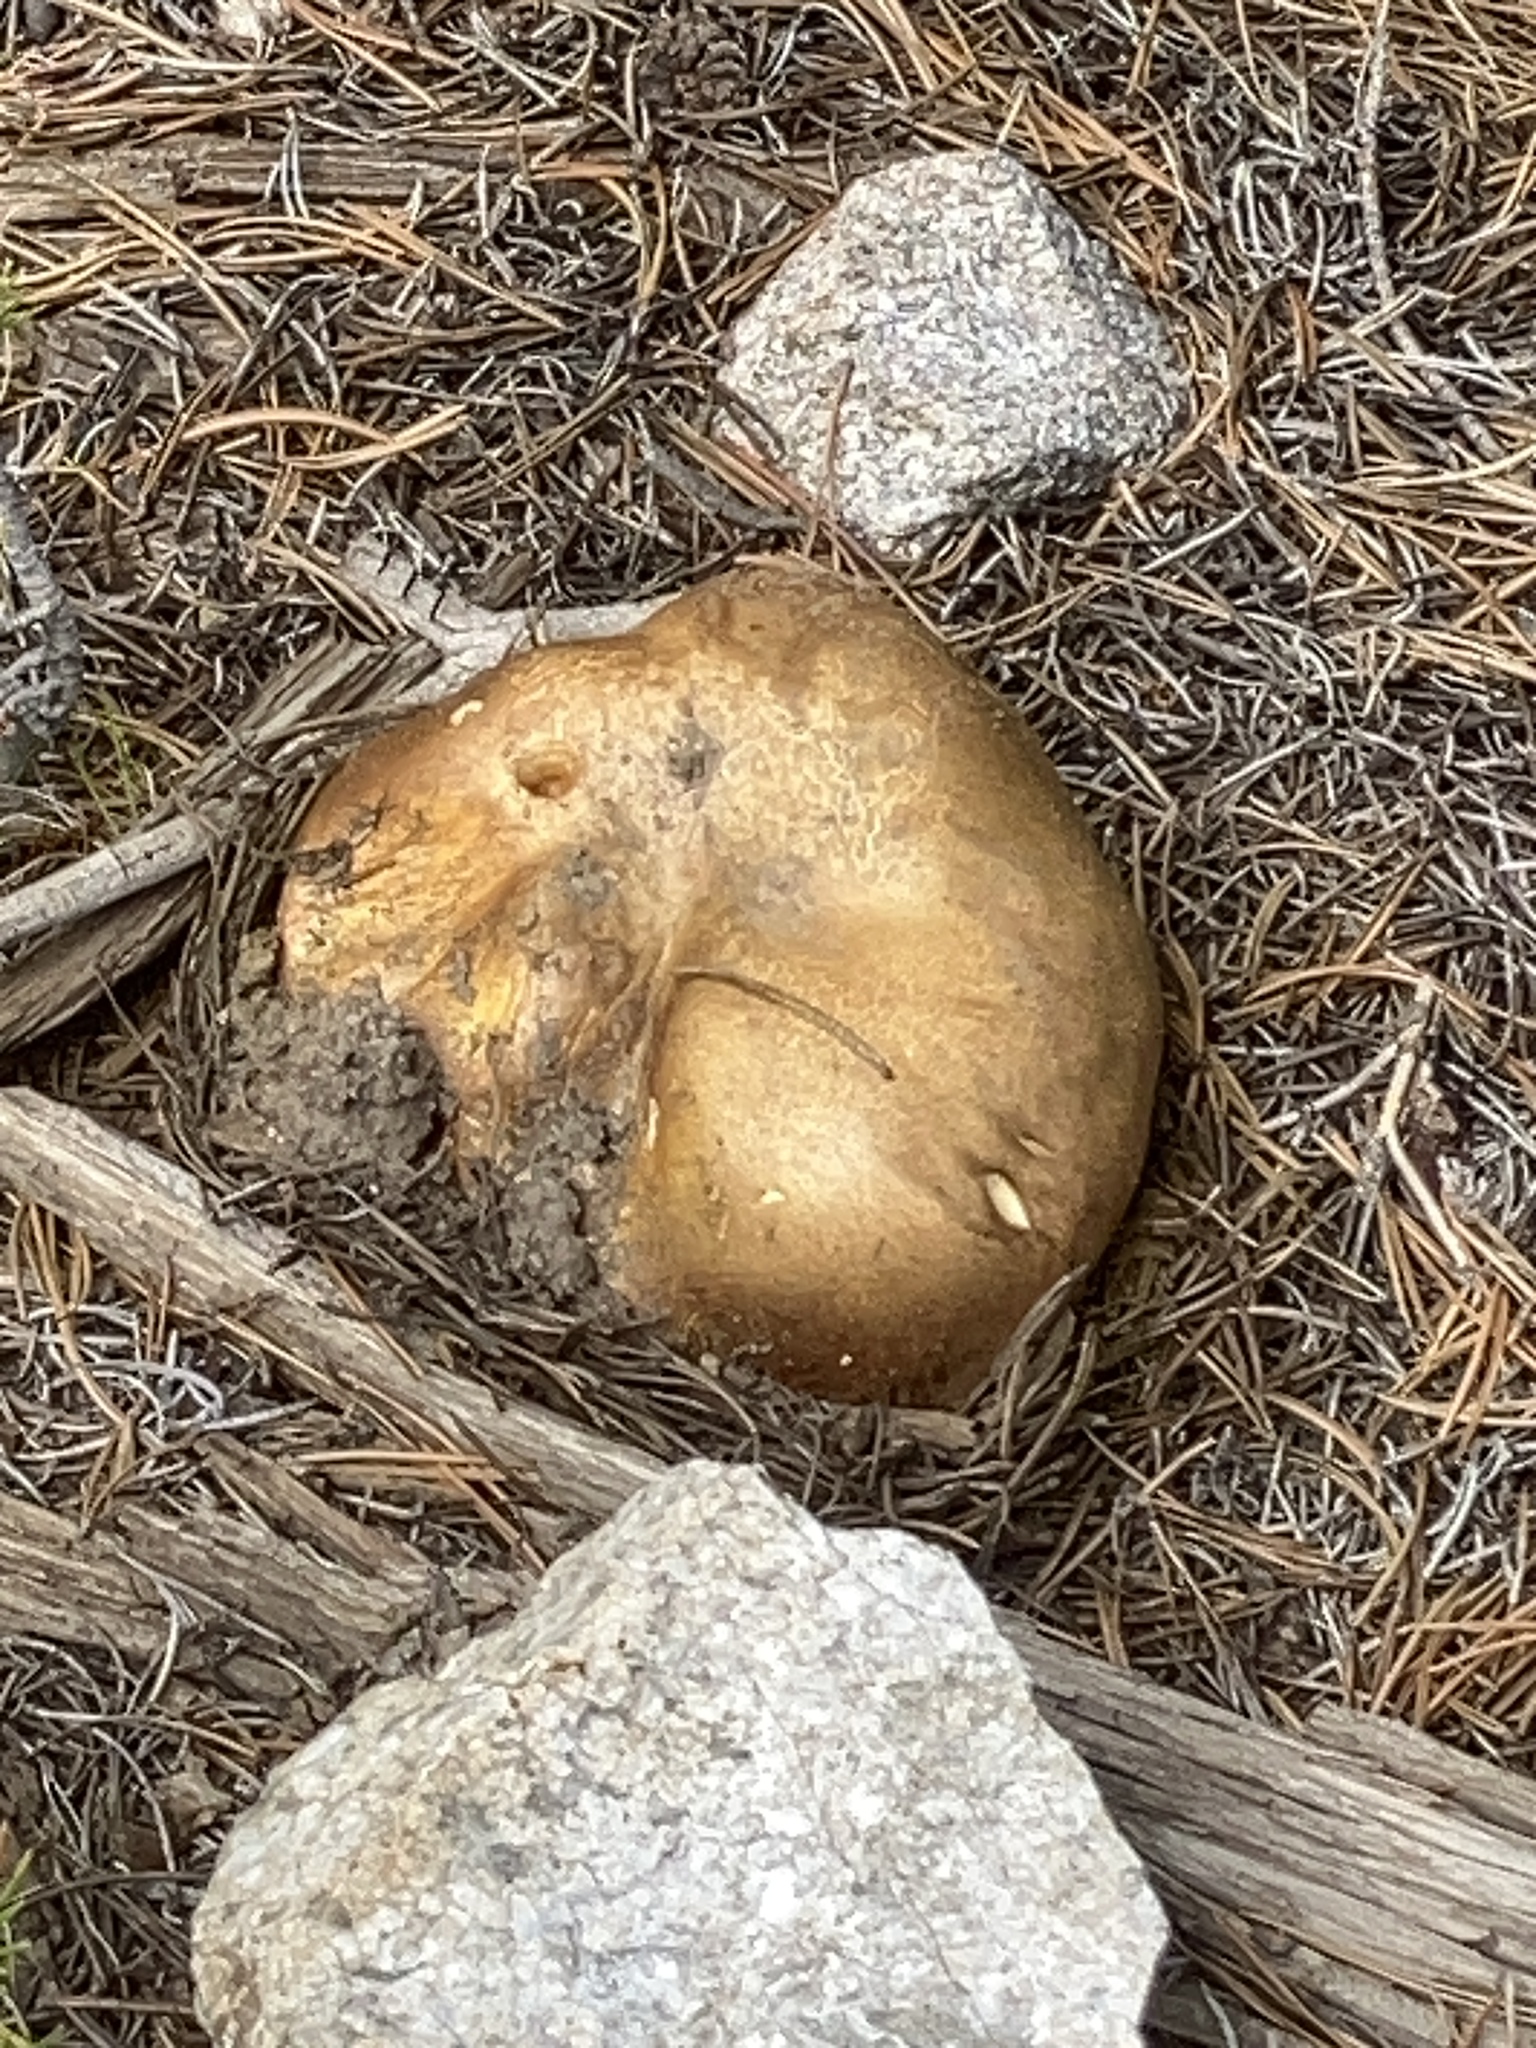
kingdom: Fungi
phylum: Basidiomycota
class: Agaricomycetes
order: Boletales
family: Boletaceae
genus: Boletus
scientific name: Boletus rex-veris
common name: Spring king
